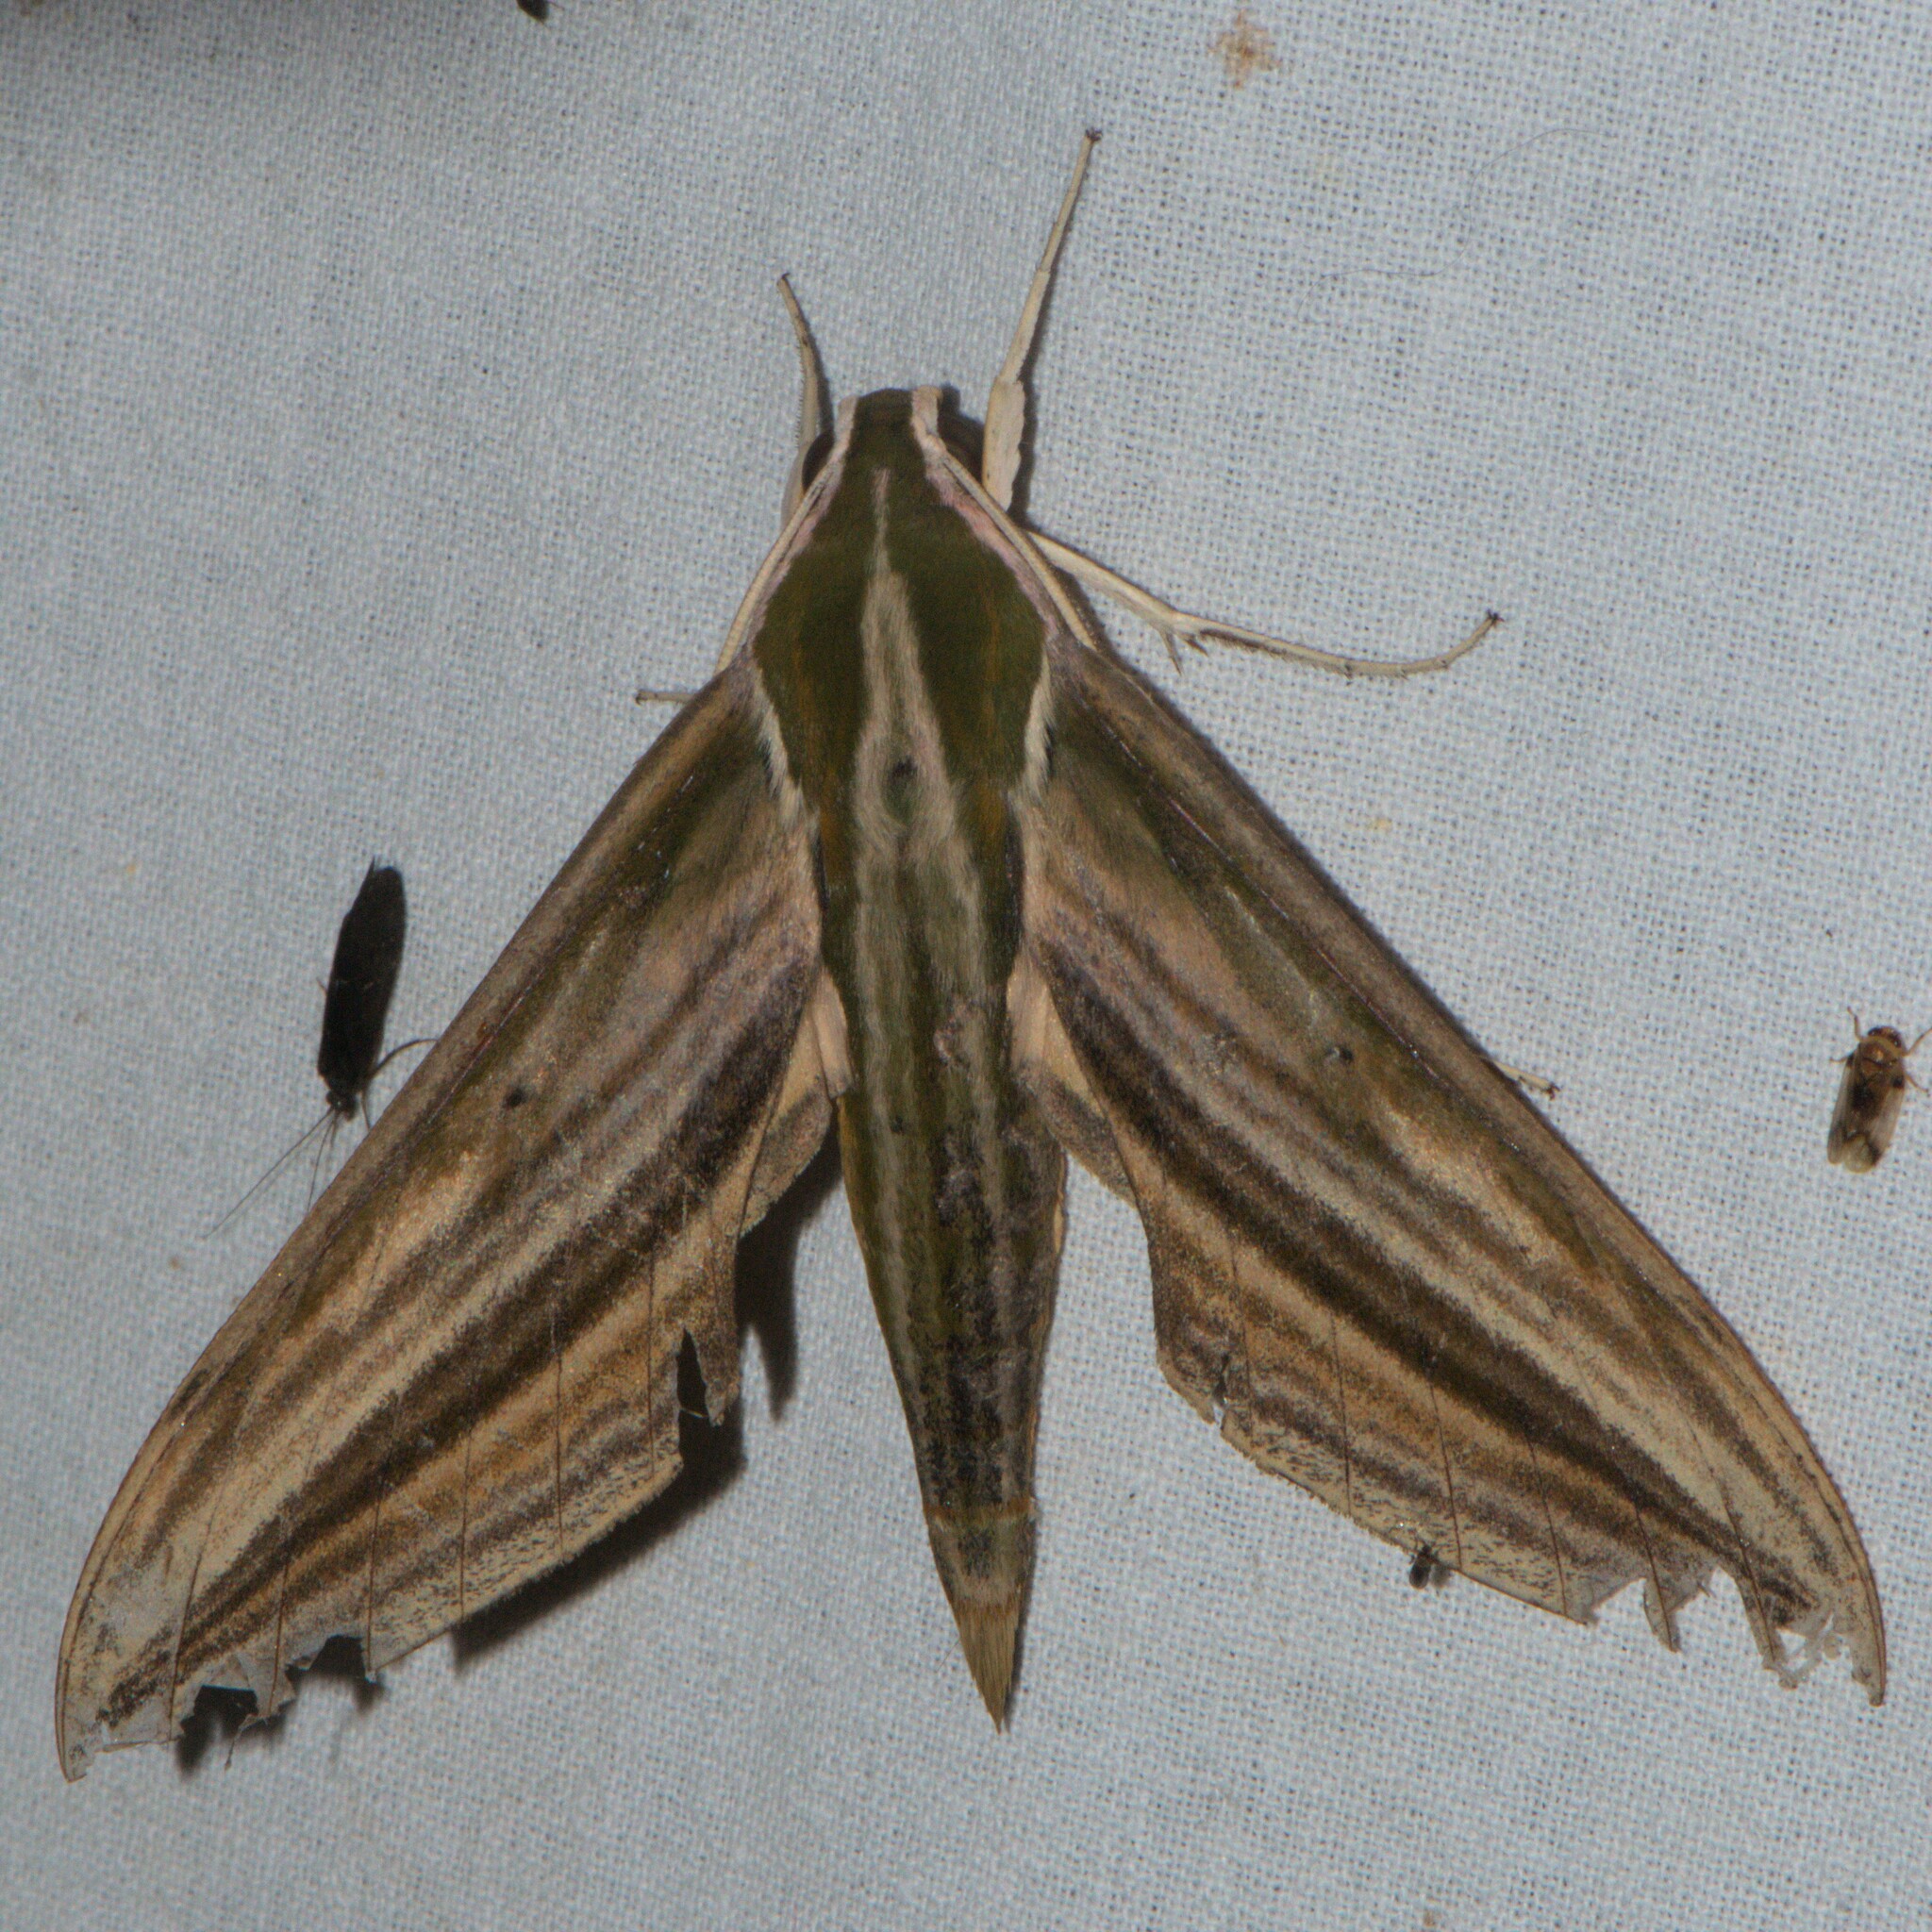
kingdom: Animalia
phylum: Arthropoda
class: Insecta
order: Lepidoptera
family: Sphingidae
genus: Cechetra
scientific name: Cechetra lineosa
